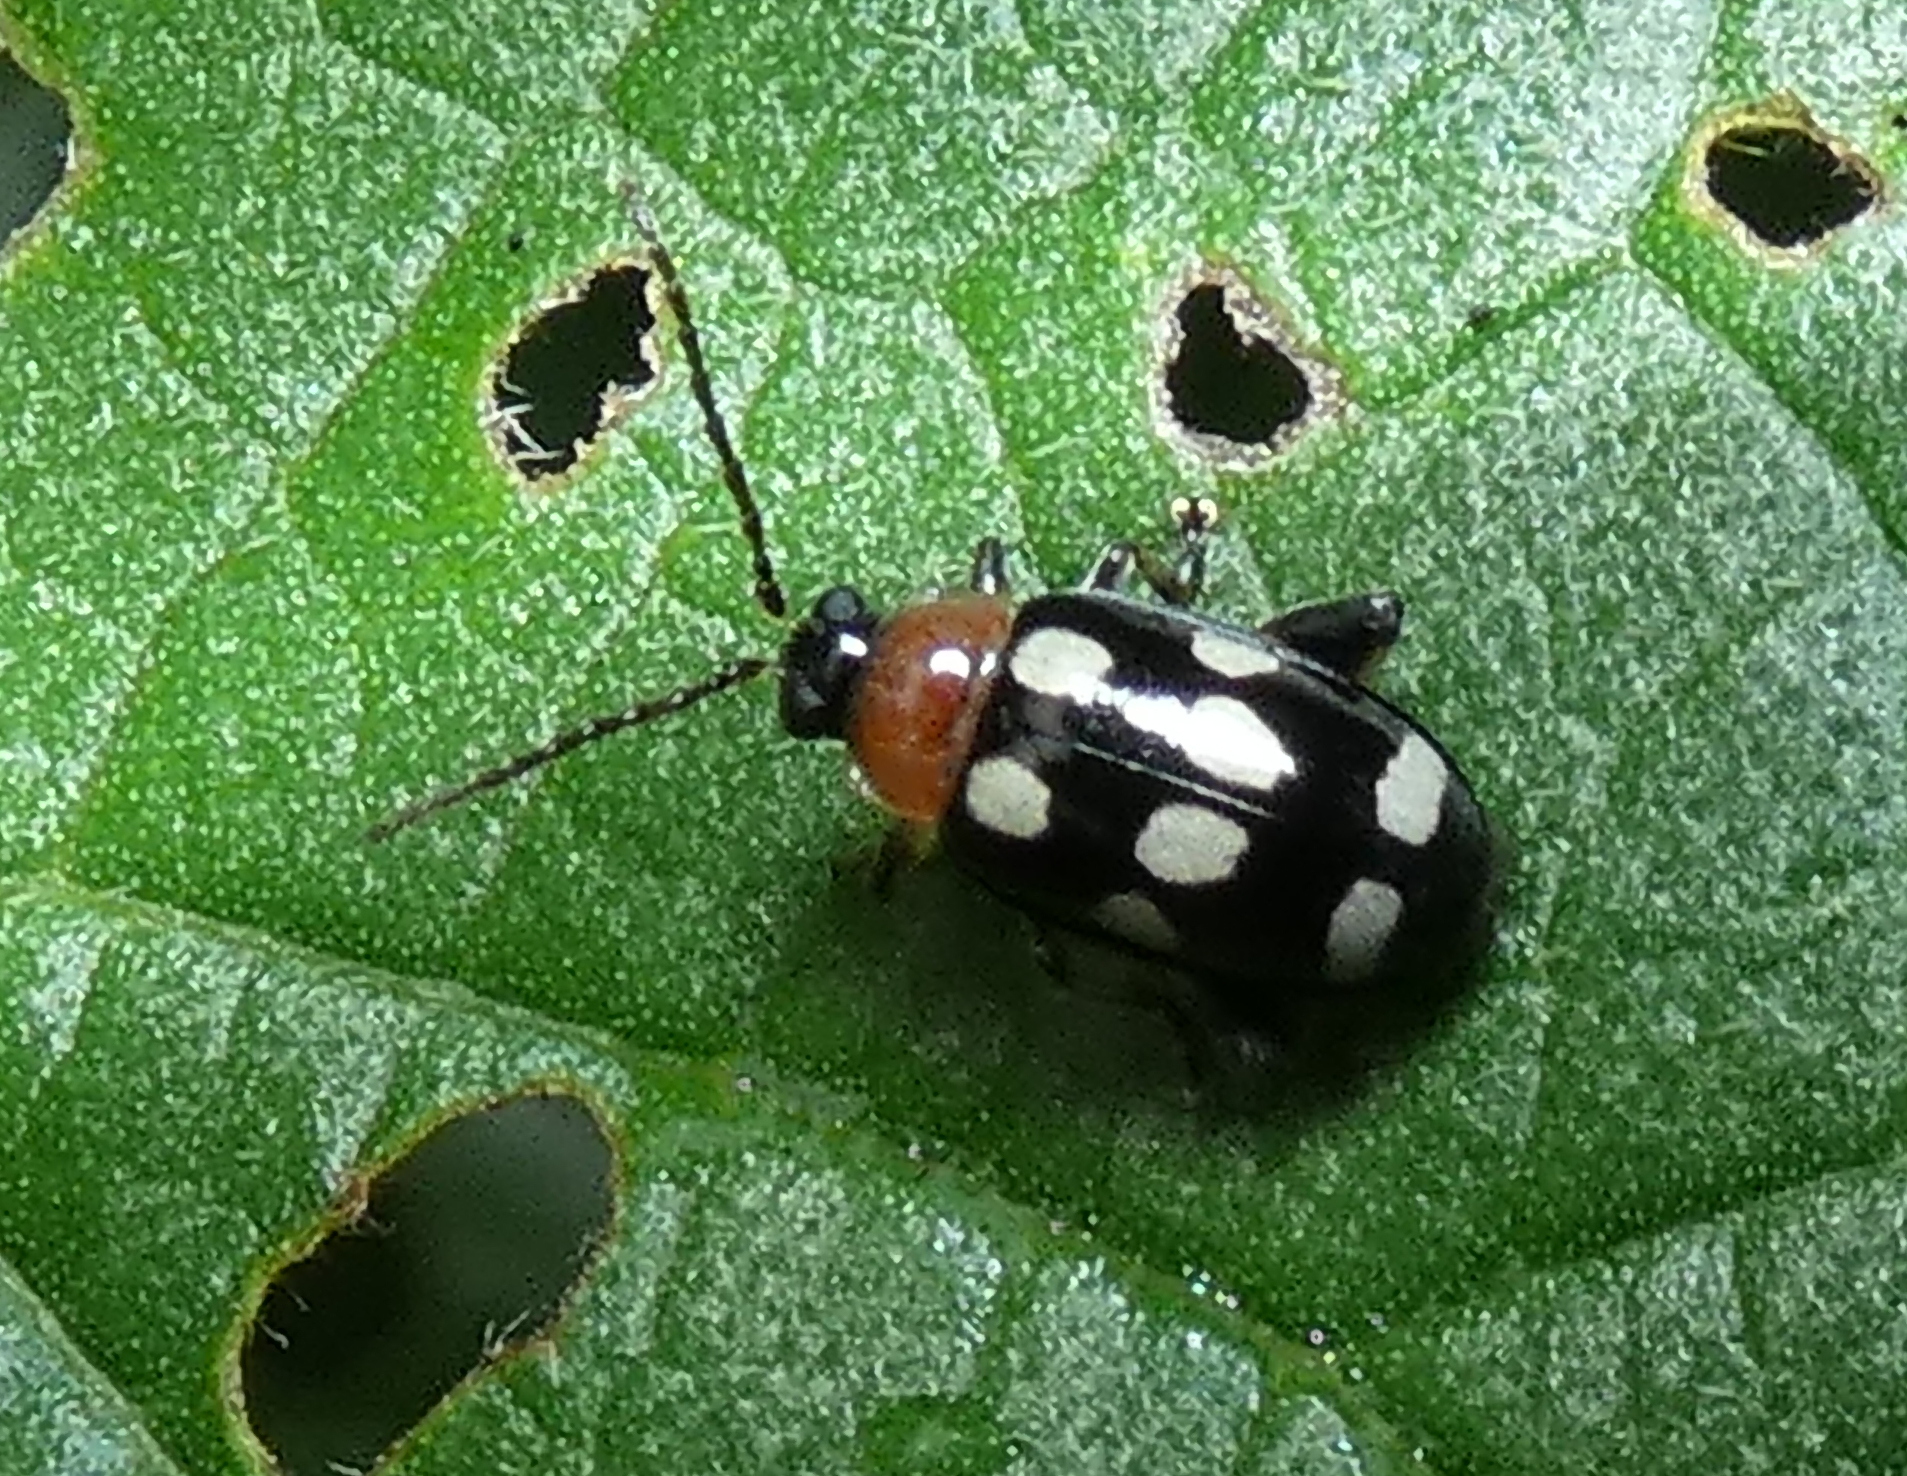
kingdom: Animalia
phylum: Arthropoda
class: Insecta
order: Coleoptera
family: Chrysomelidae
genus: Phenrica
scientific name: Phenrica austriaca
